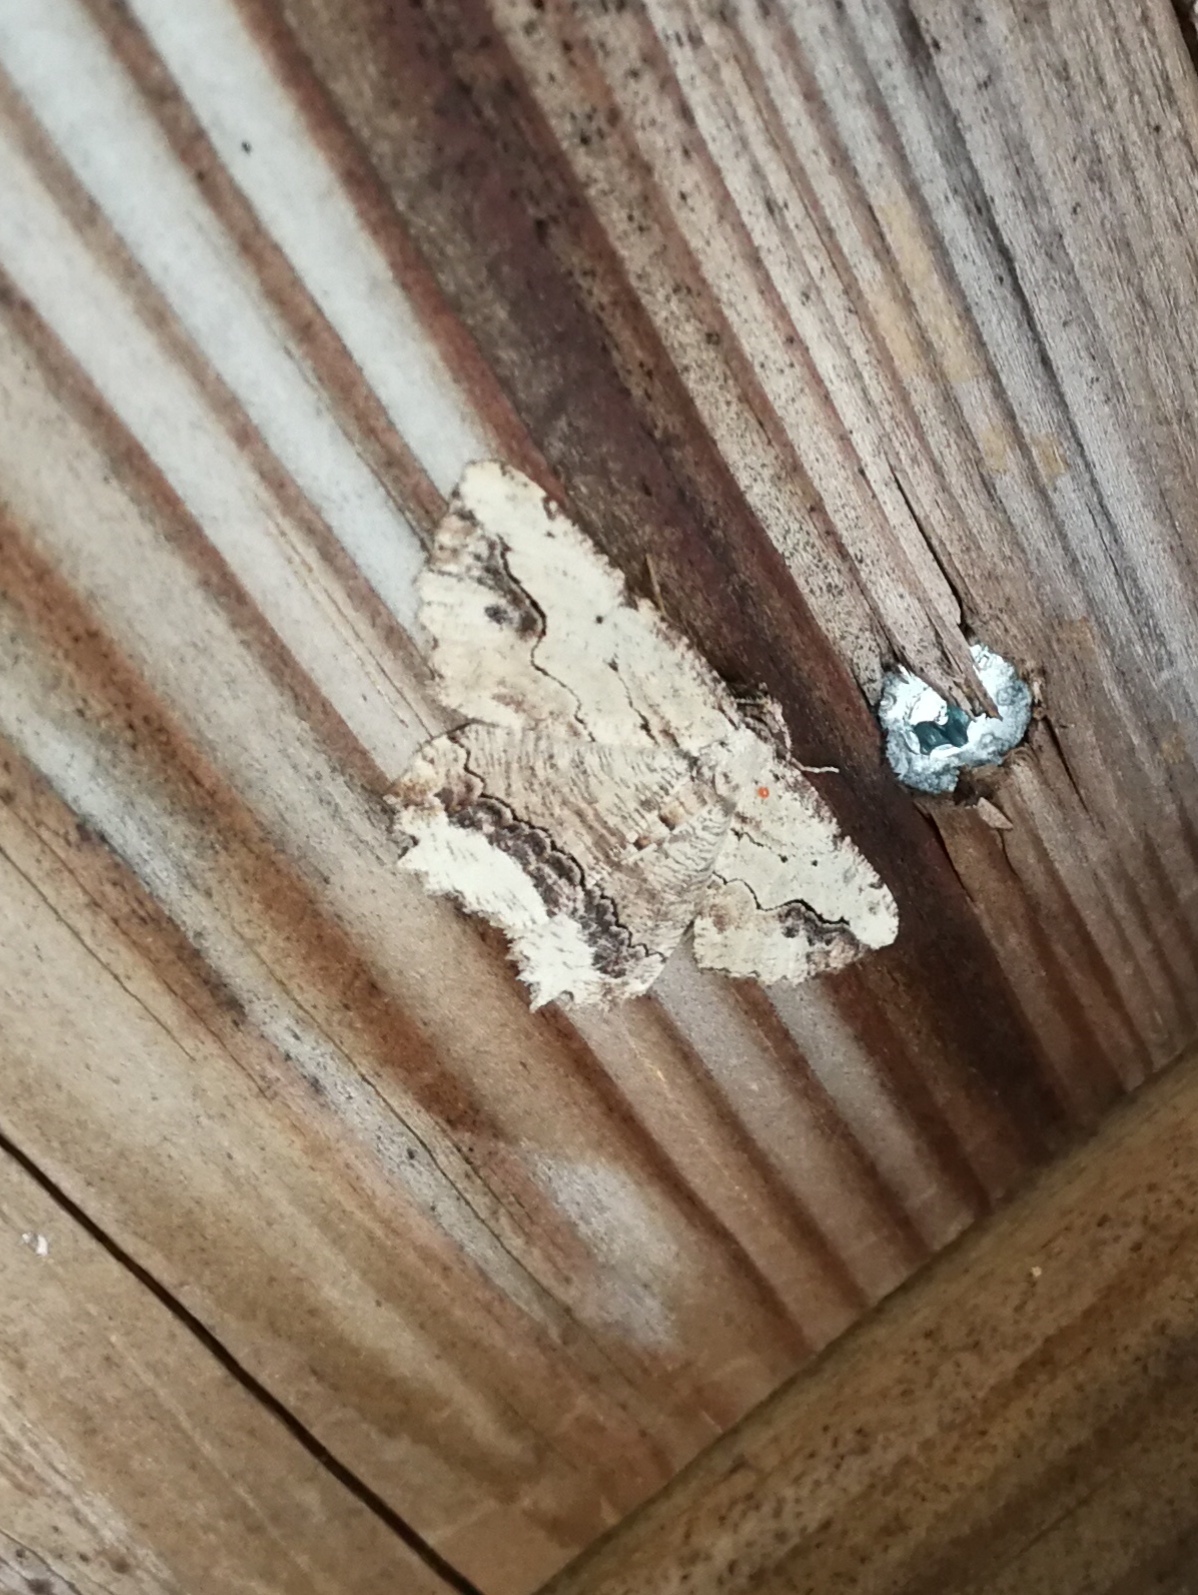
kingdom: Animalia
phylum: Arthropoda
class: Insecta
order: Lepidoptera
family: Geometridae
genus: Menophra
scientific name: Menophra abruptaria
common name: Waved umber
